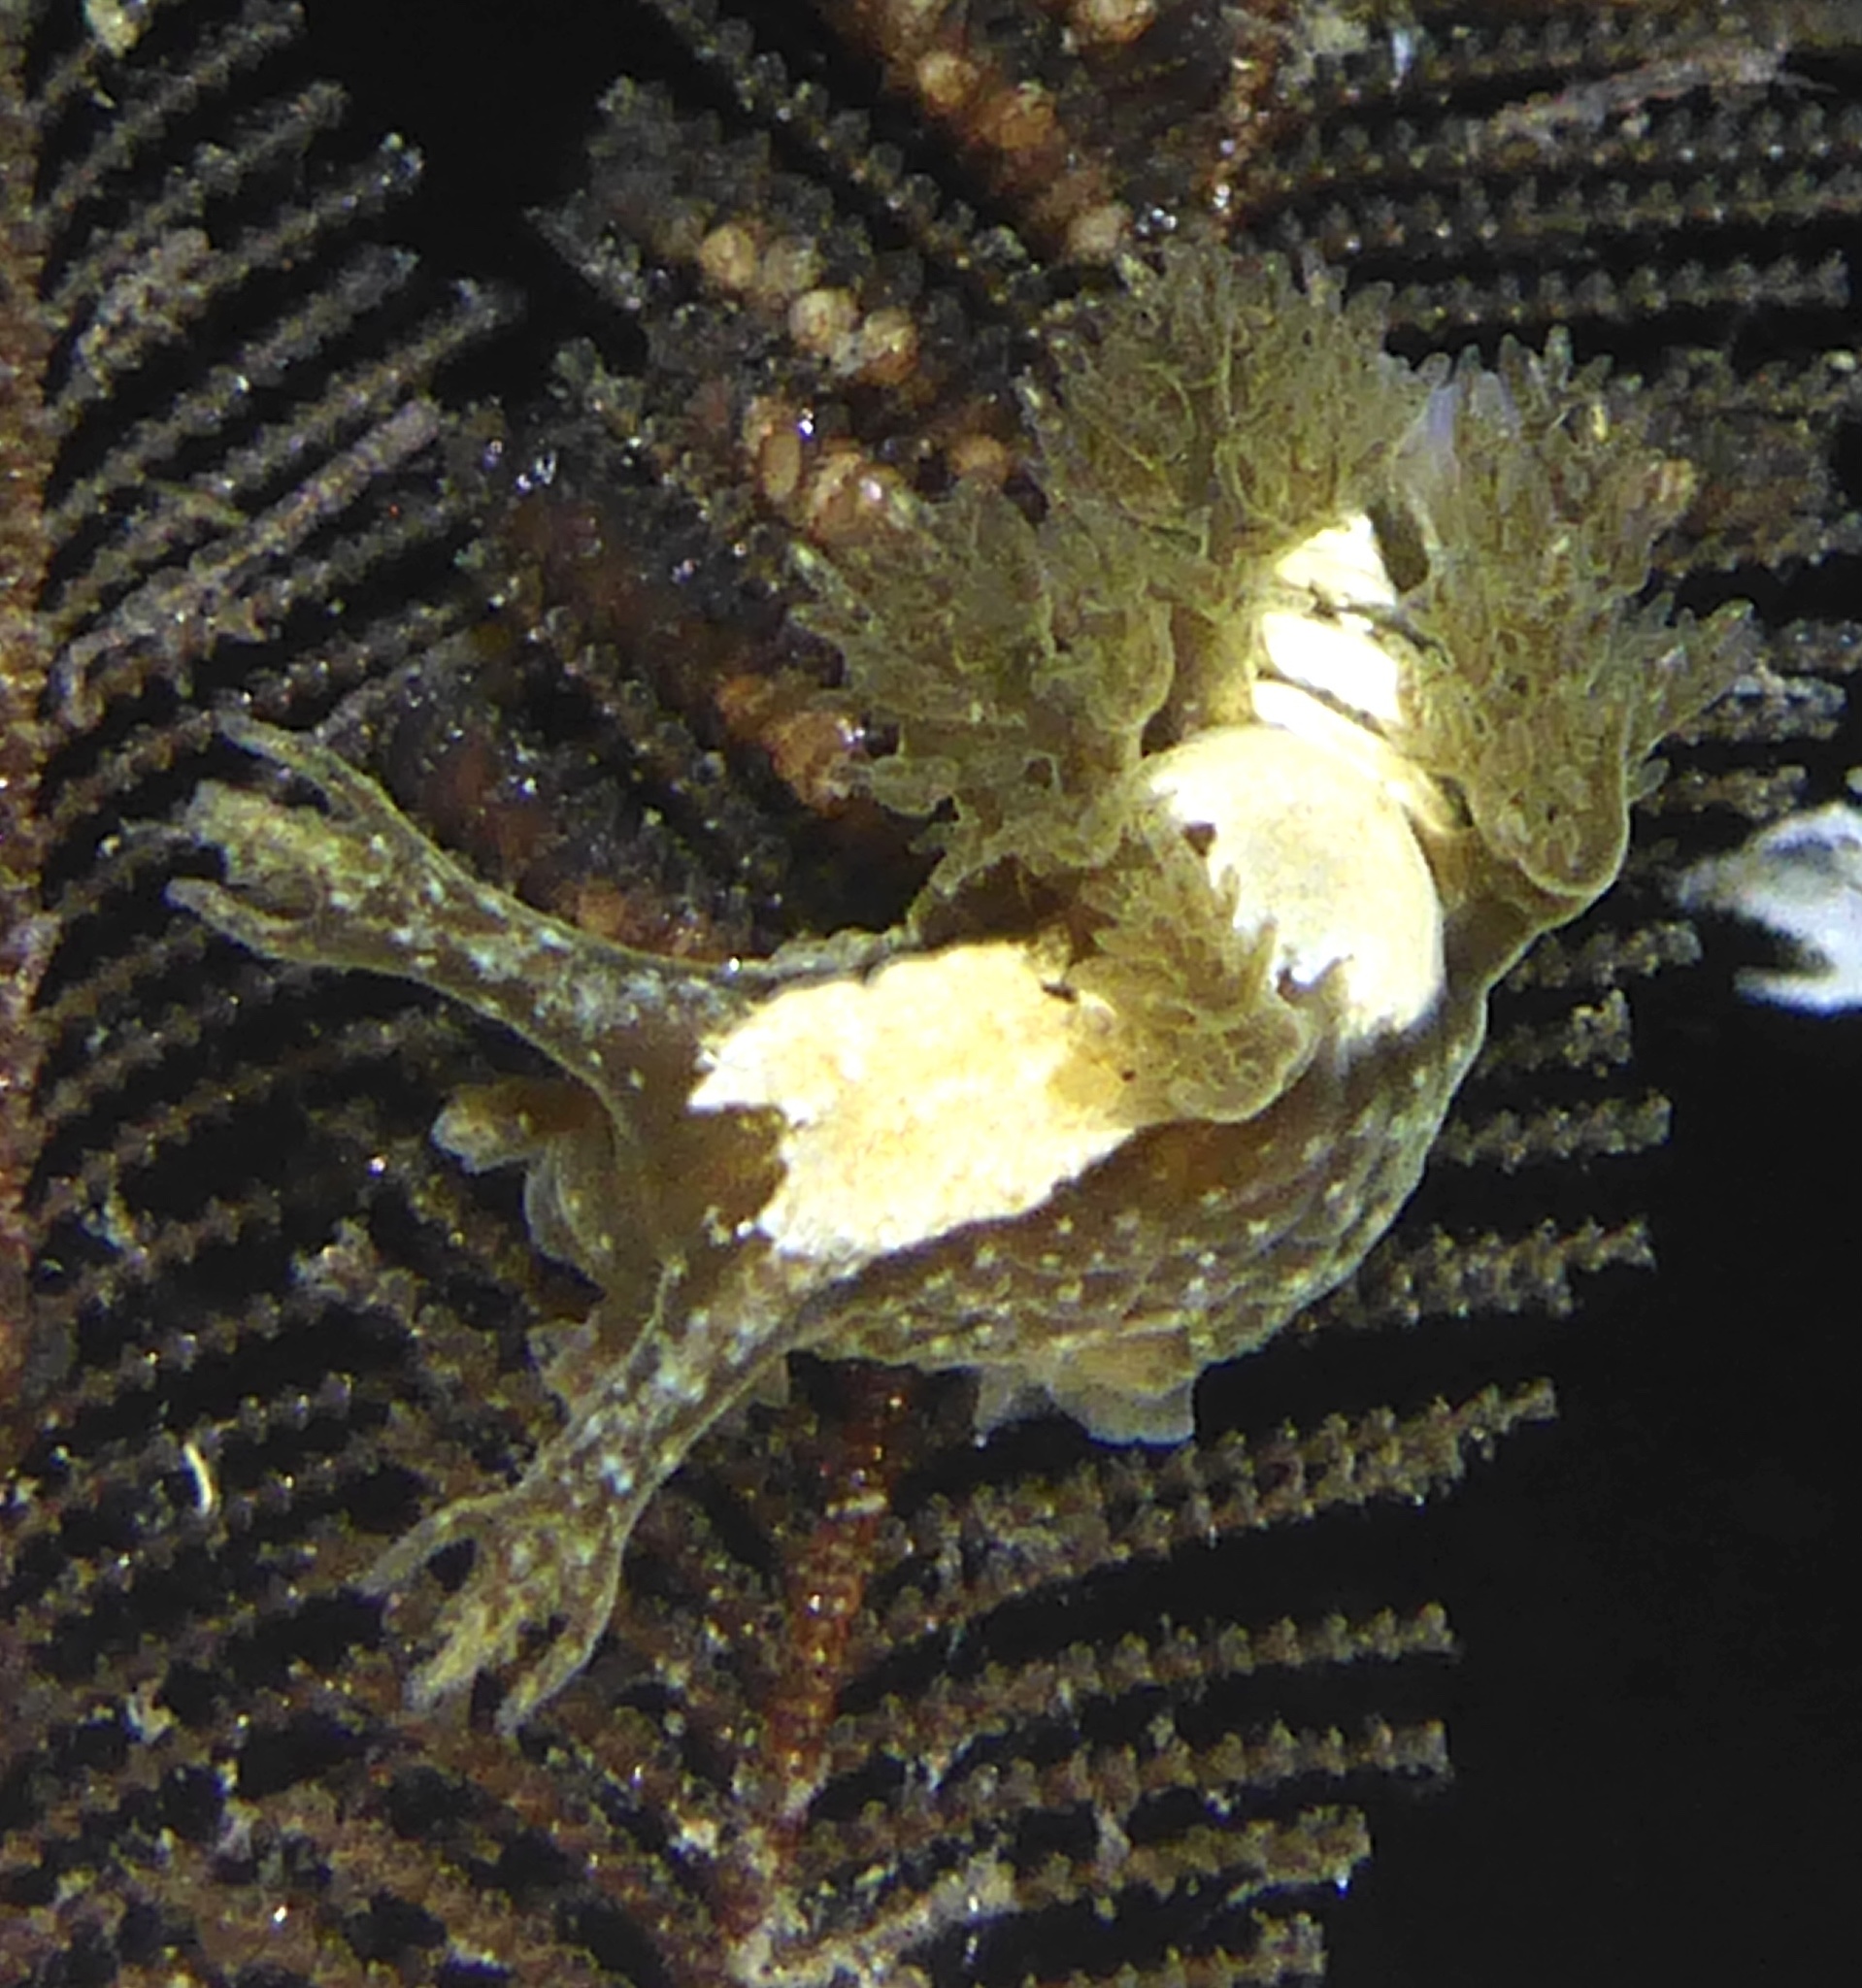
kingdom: Animalia
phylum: Mollusca
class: Gastropoda
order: Nudibranchia
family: Dendronotidae
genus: Dendronotus
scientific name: Dendronotus subramosus
